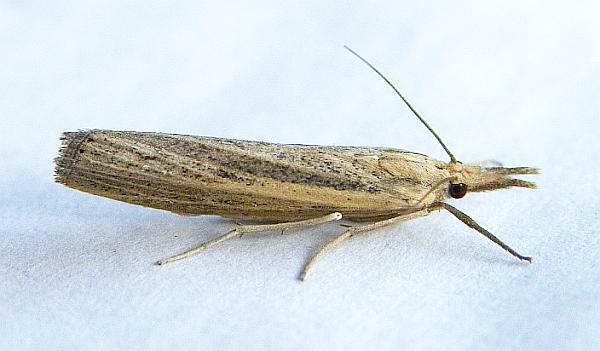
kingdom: Animalia
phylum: Arthropoda
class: Insecta
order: Lepidoptera
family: Crambidae
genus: Pediasia
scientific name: Pediasia trisecta
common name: Sod webworm moth
